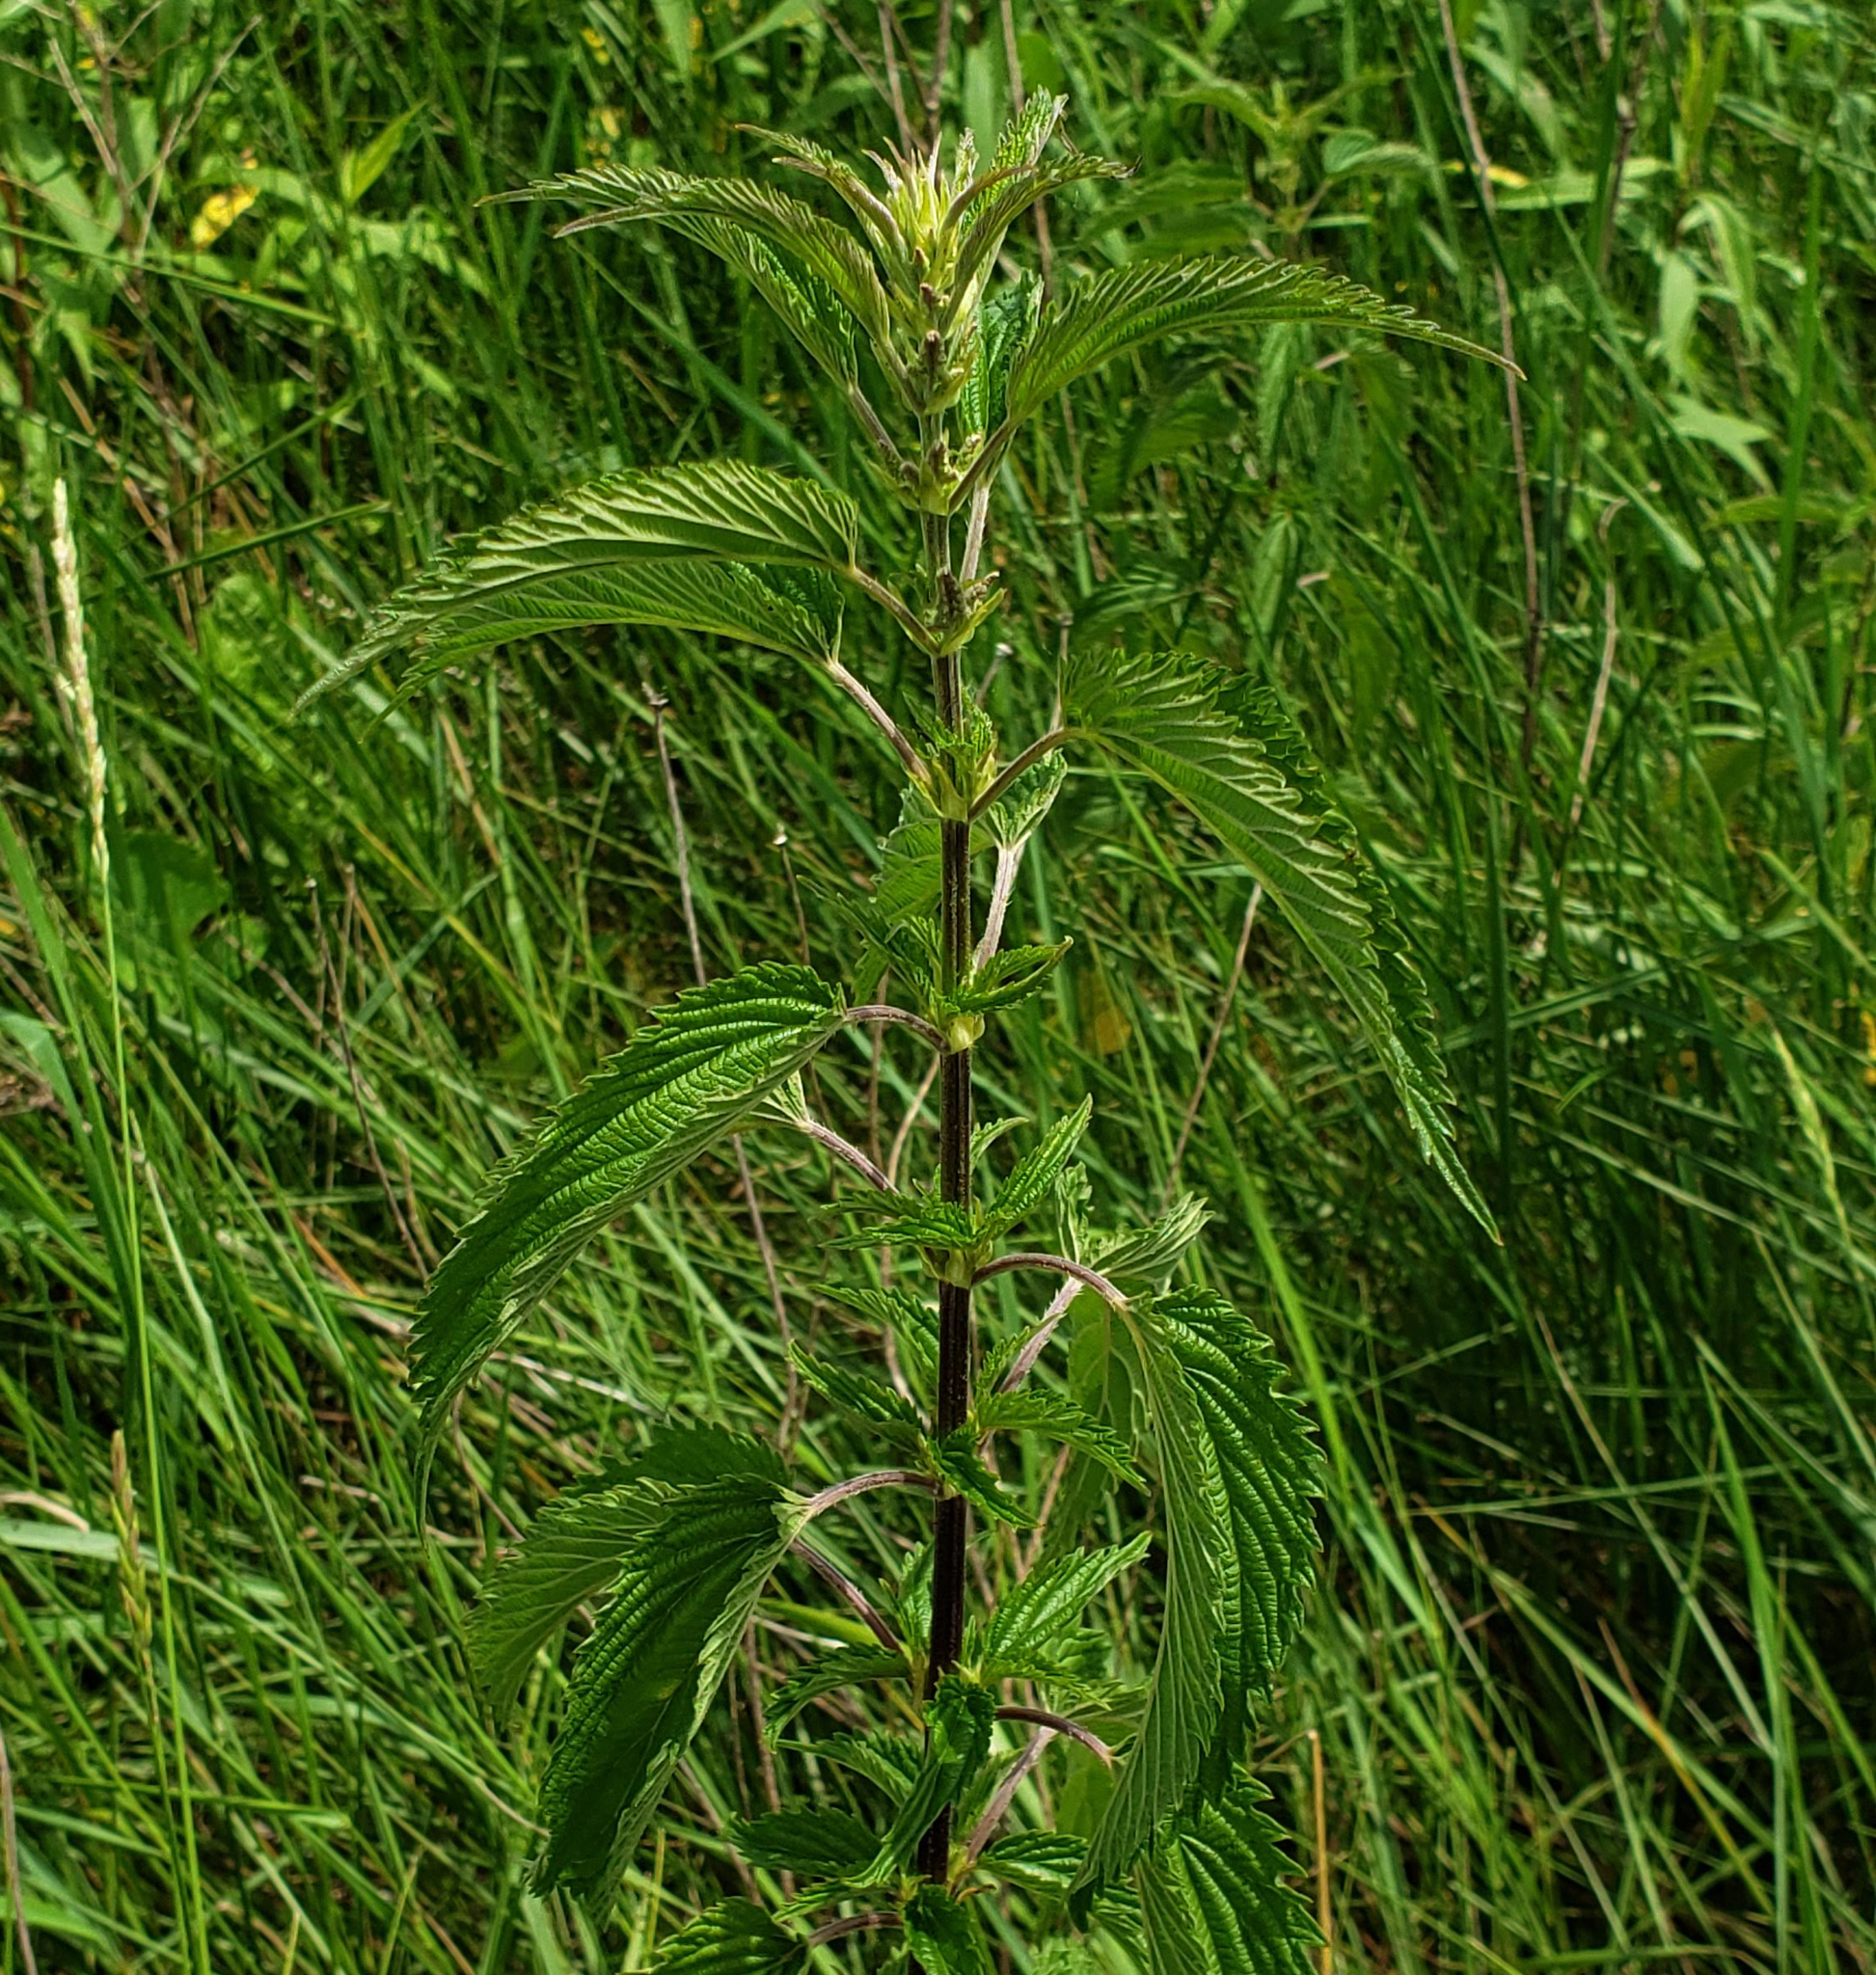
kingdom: Plantae
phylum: Tracheophyta
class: Magnoliopsida
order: Rosales
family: Urticaceae
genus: Urtica
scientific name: Urtica dioica
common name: Common nettle
